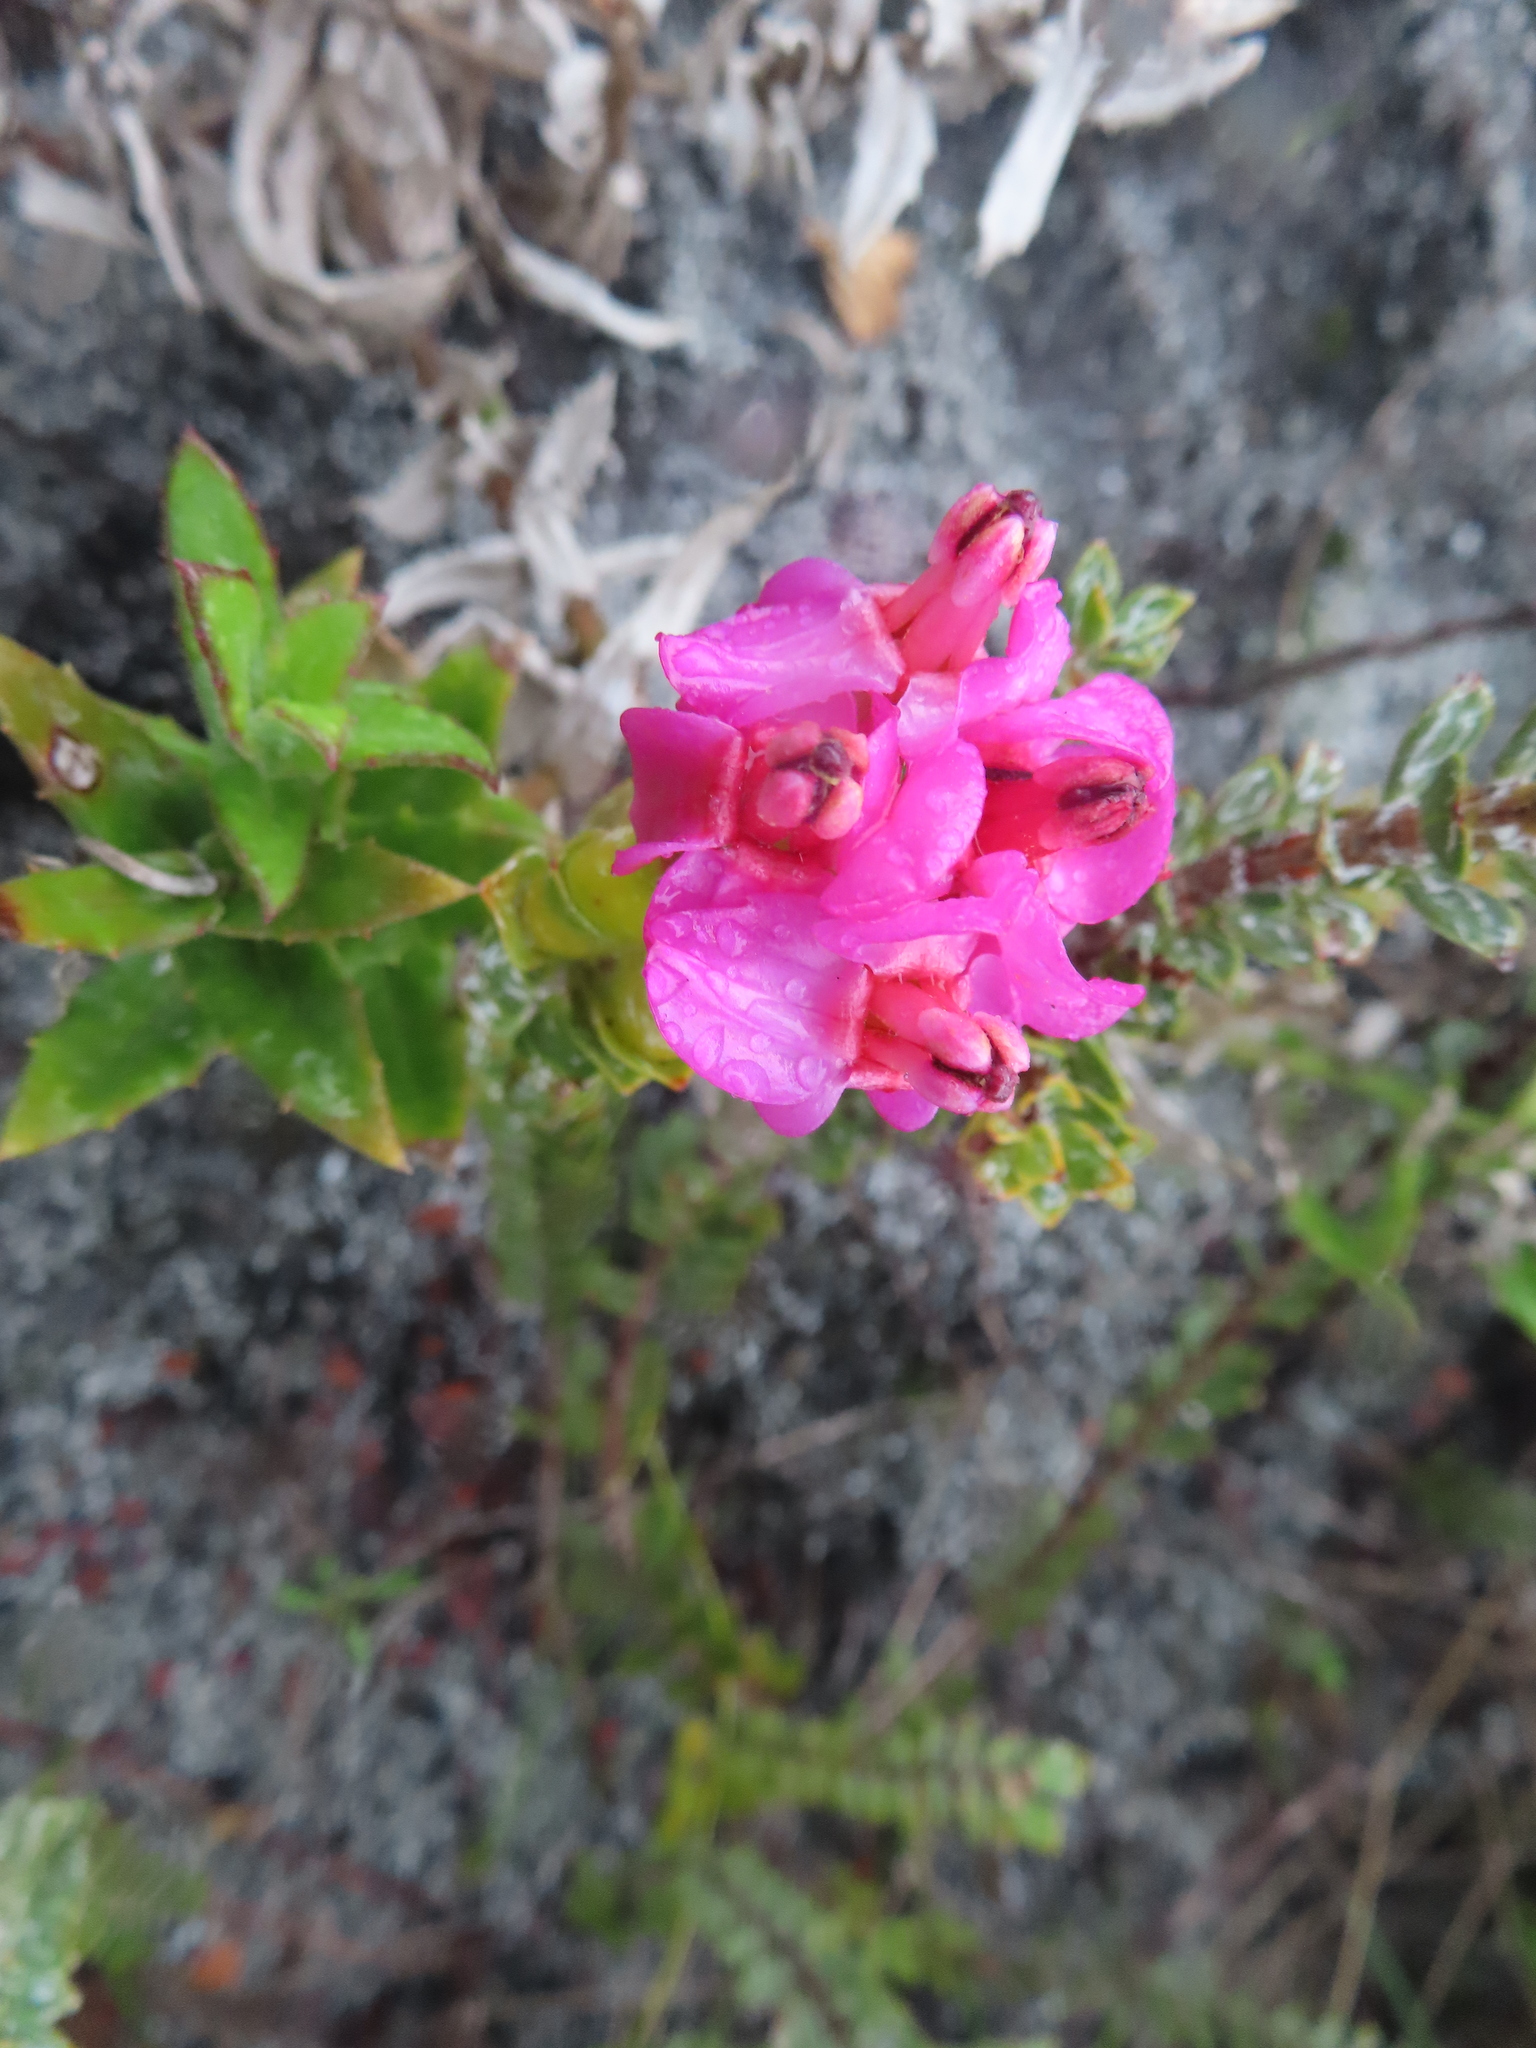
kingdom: Plantae
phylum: Tracheophyta
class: Magnoliopsida
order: Myrtales
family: Penaeaceae
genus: Saltera
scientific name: Saltera sarcocolla
